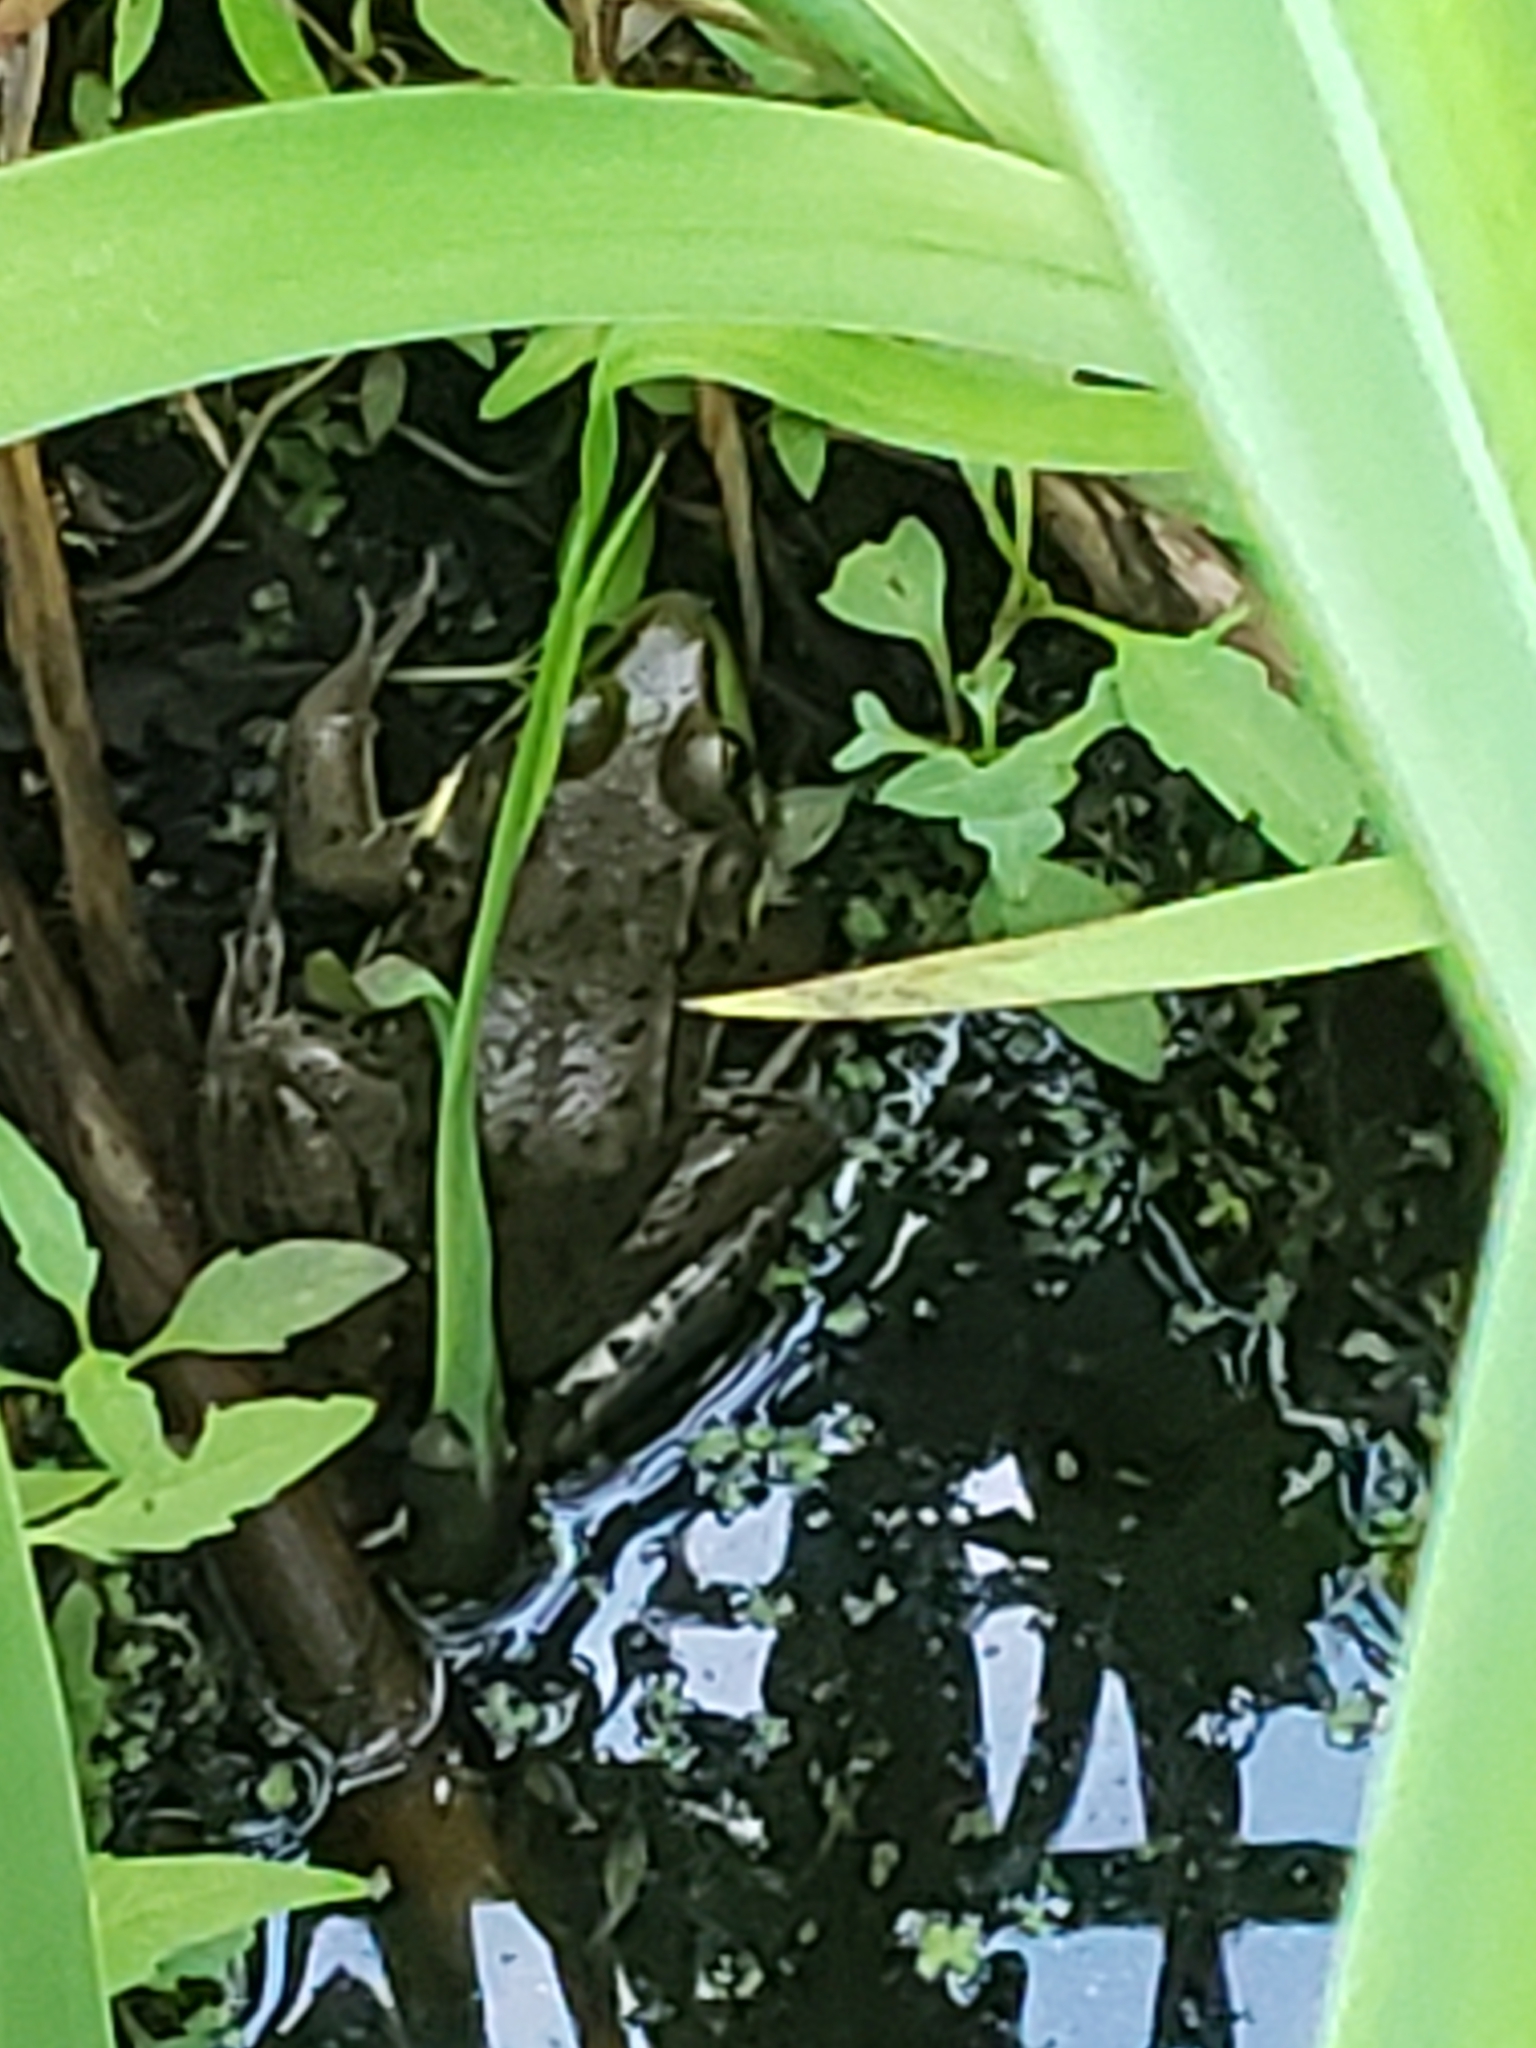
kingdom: Animalia
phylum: Chordata
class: Amphibia
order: Anura
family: Ranidae
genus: Lithobates
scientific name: Lithobates clamitans
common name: Green frog
